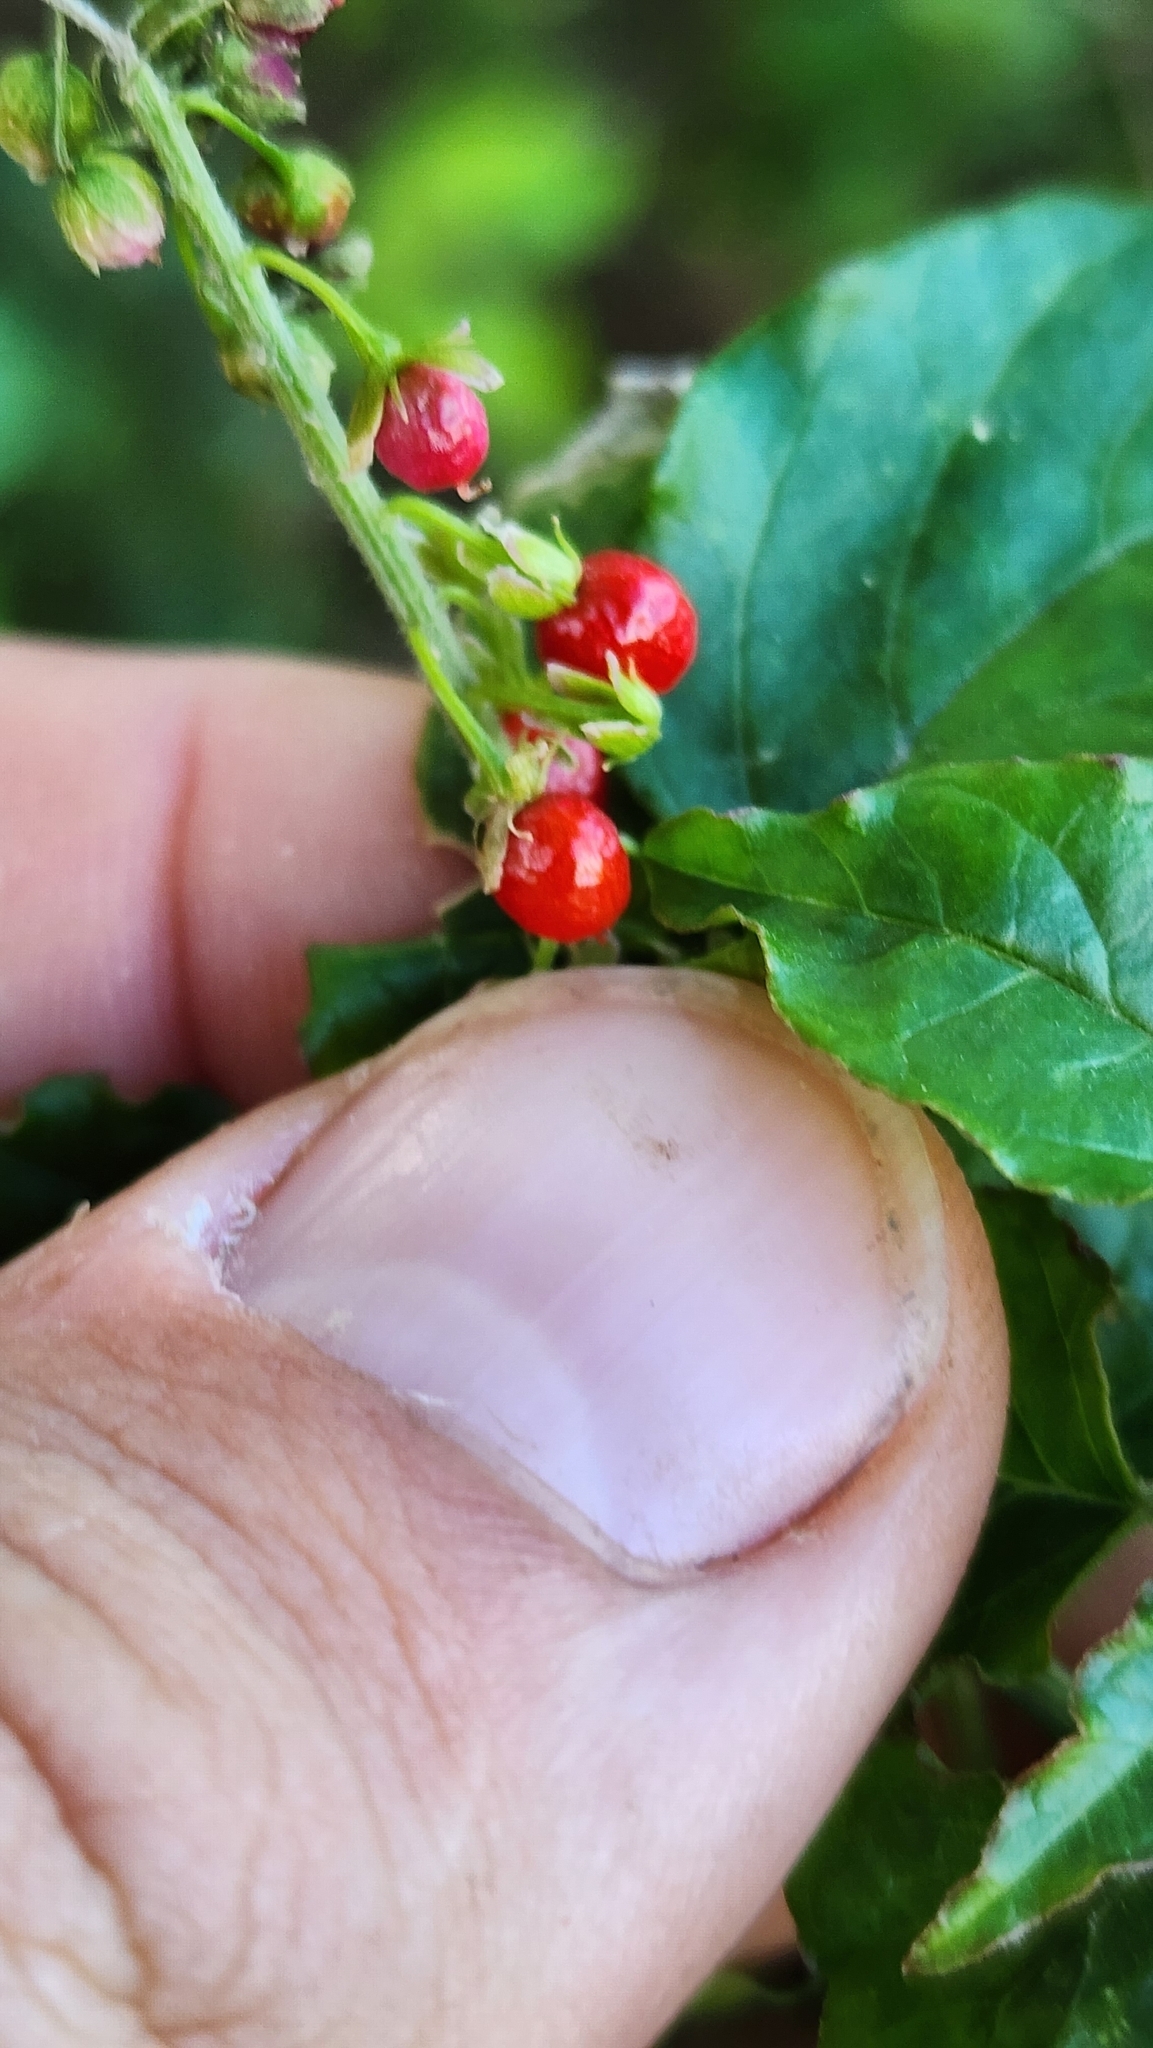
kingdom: Plantae
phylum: Tracheophyta
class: Magnoliopsida
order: Caryophyllales
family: Phytolaccaceae
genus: Rivina
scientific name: Rivina humilis
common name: Rougeplant
